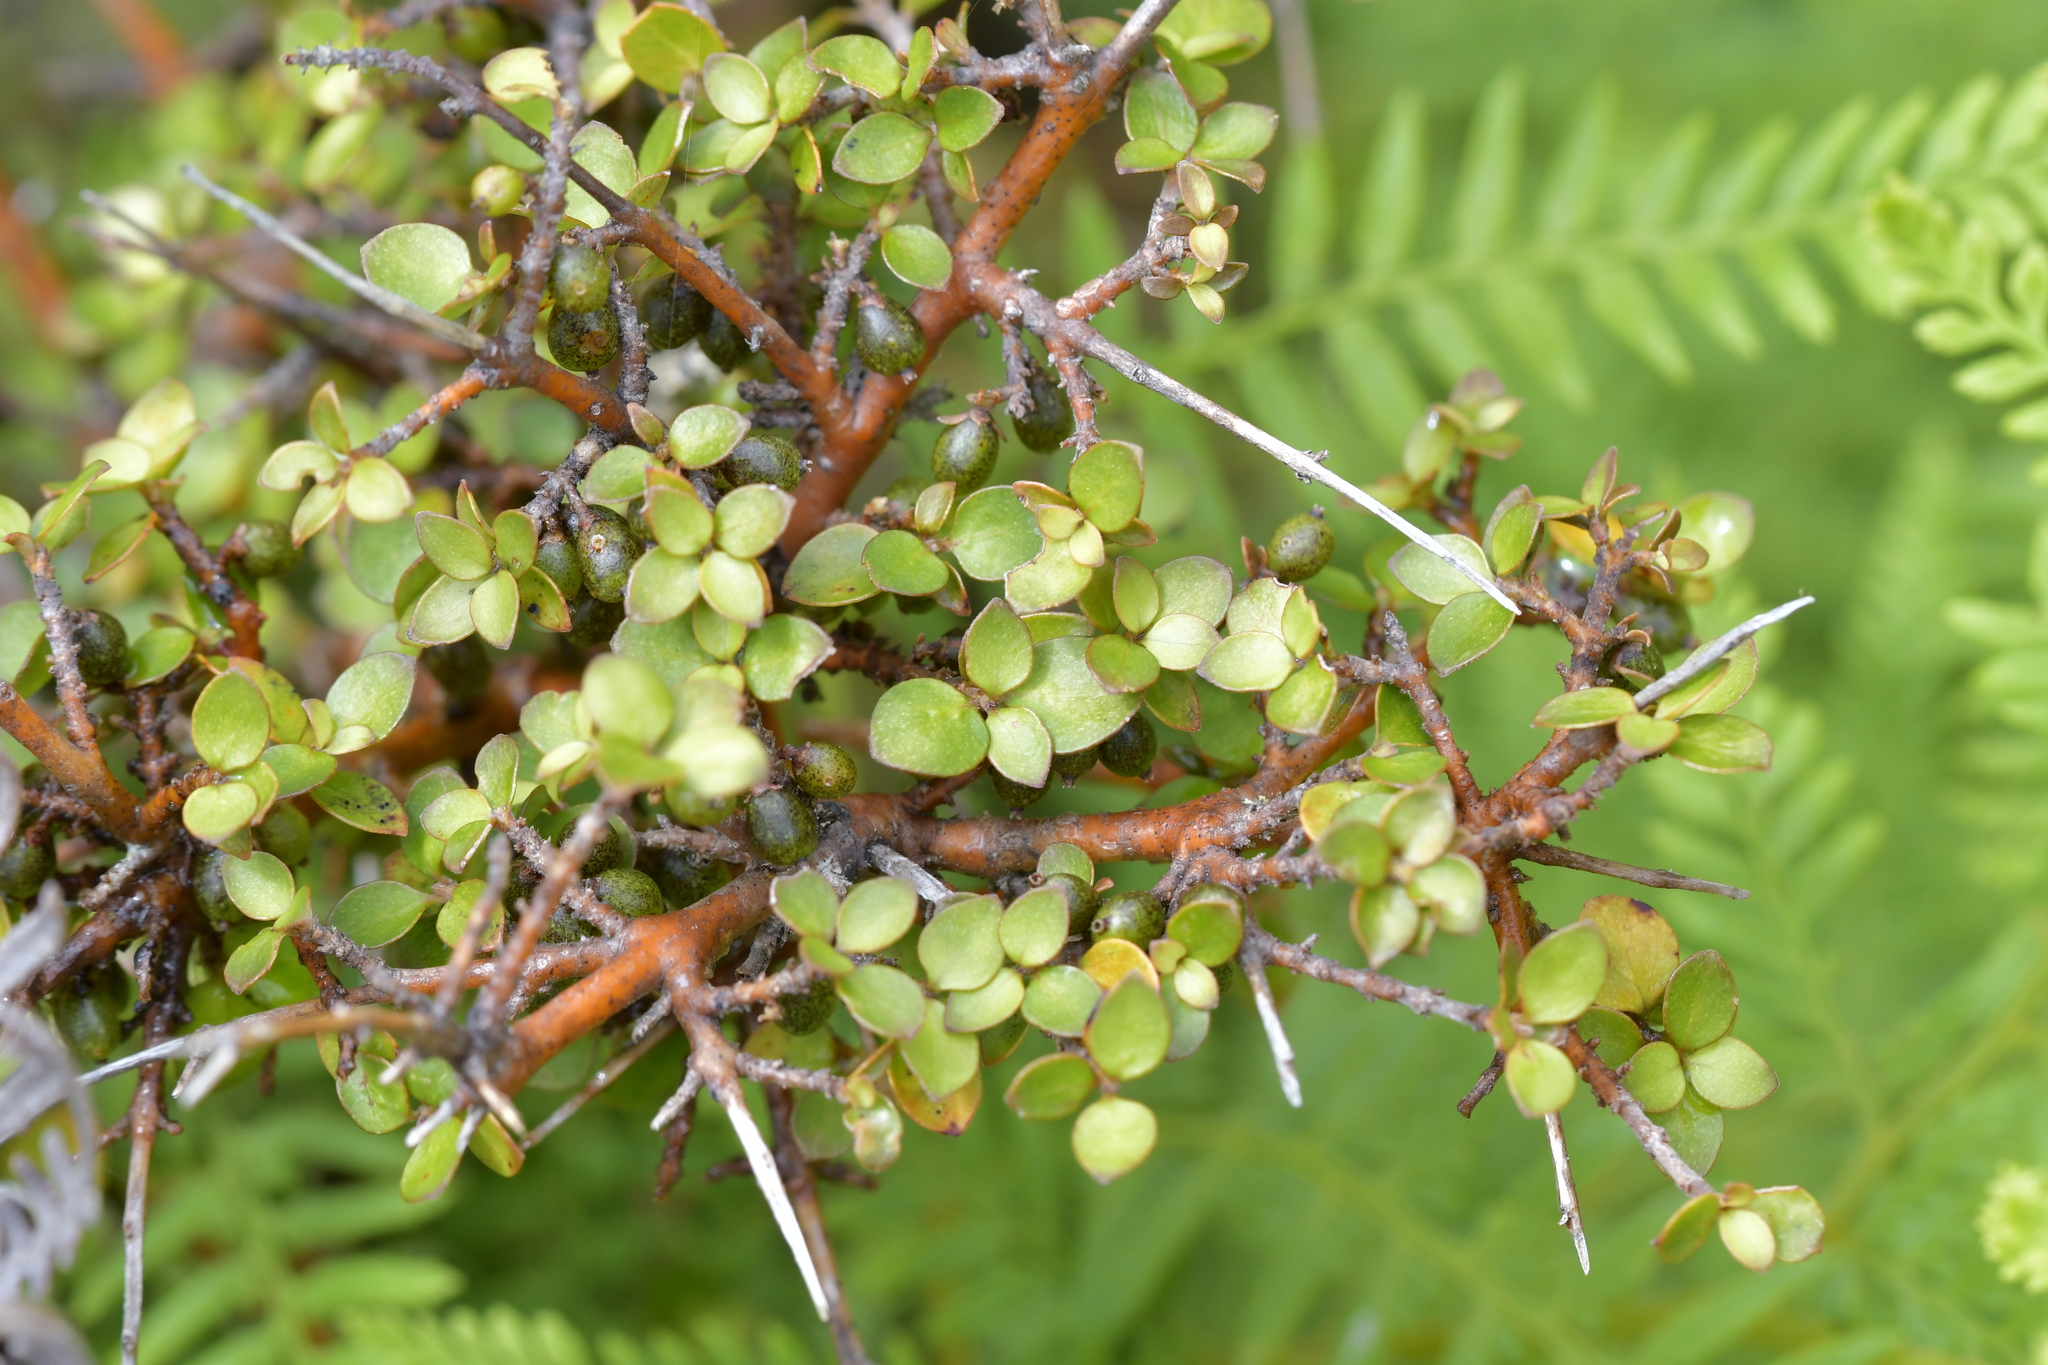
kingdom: Plantae
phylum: Tracheophyta
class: Magnoliopsida
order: Gentianales
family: Rubiaceae
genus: Coprosma
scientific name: Coprosma rhamnoides
